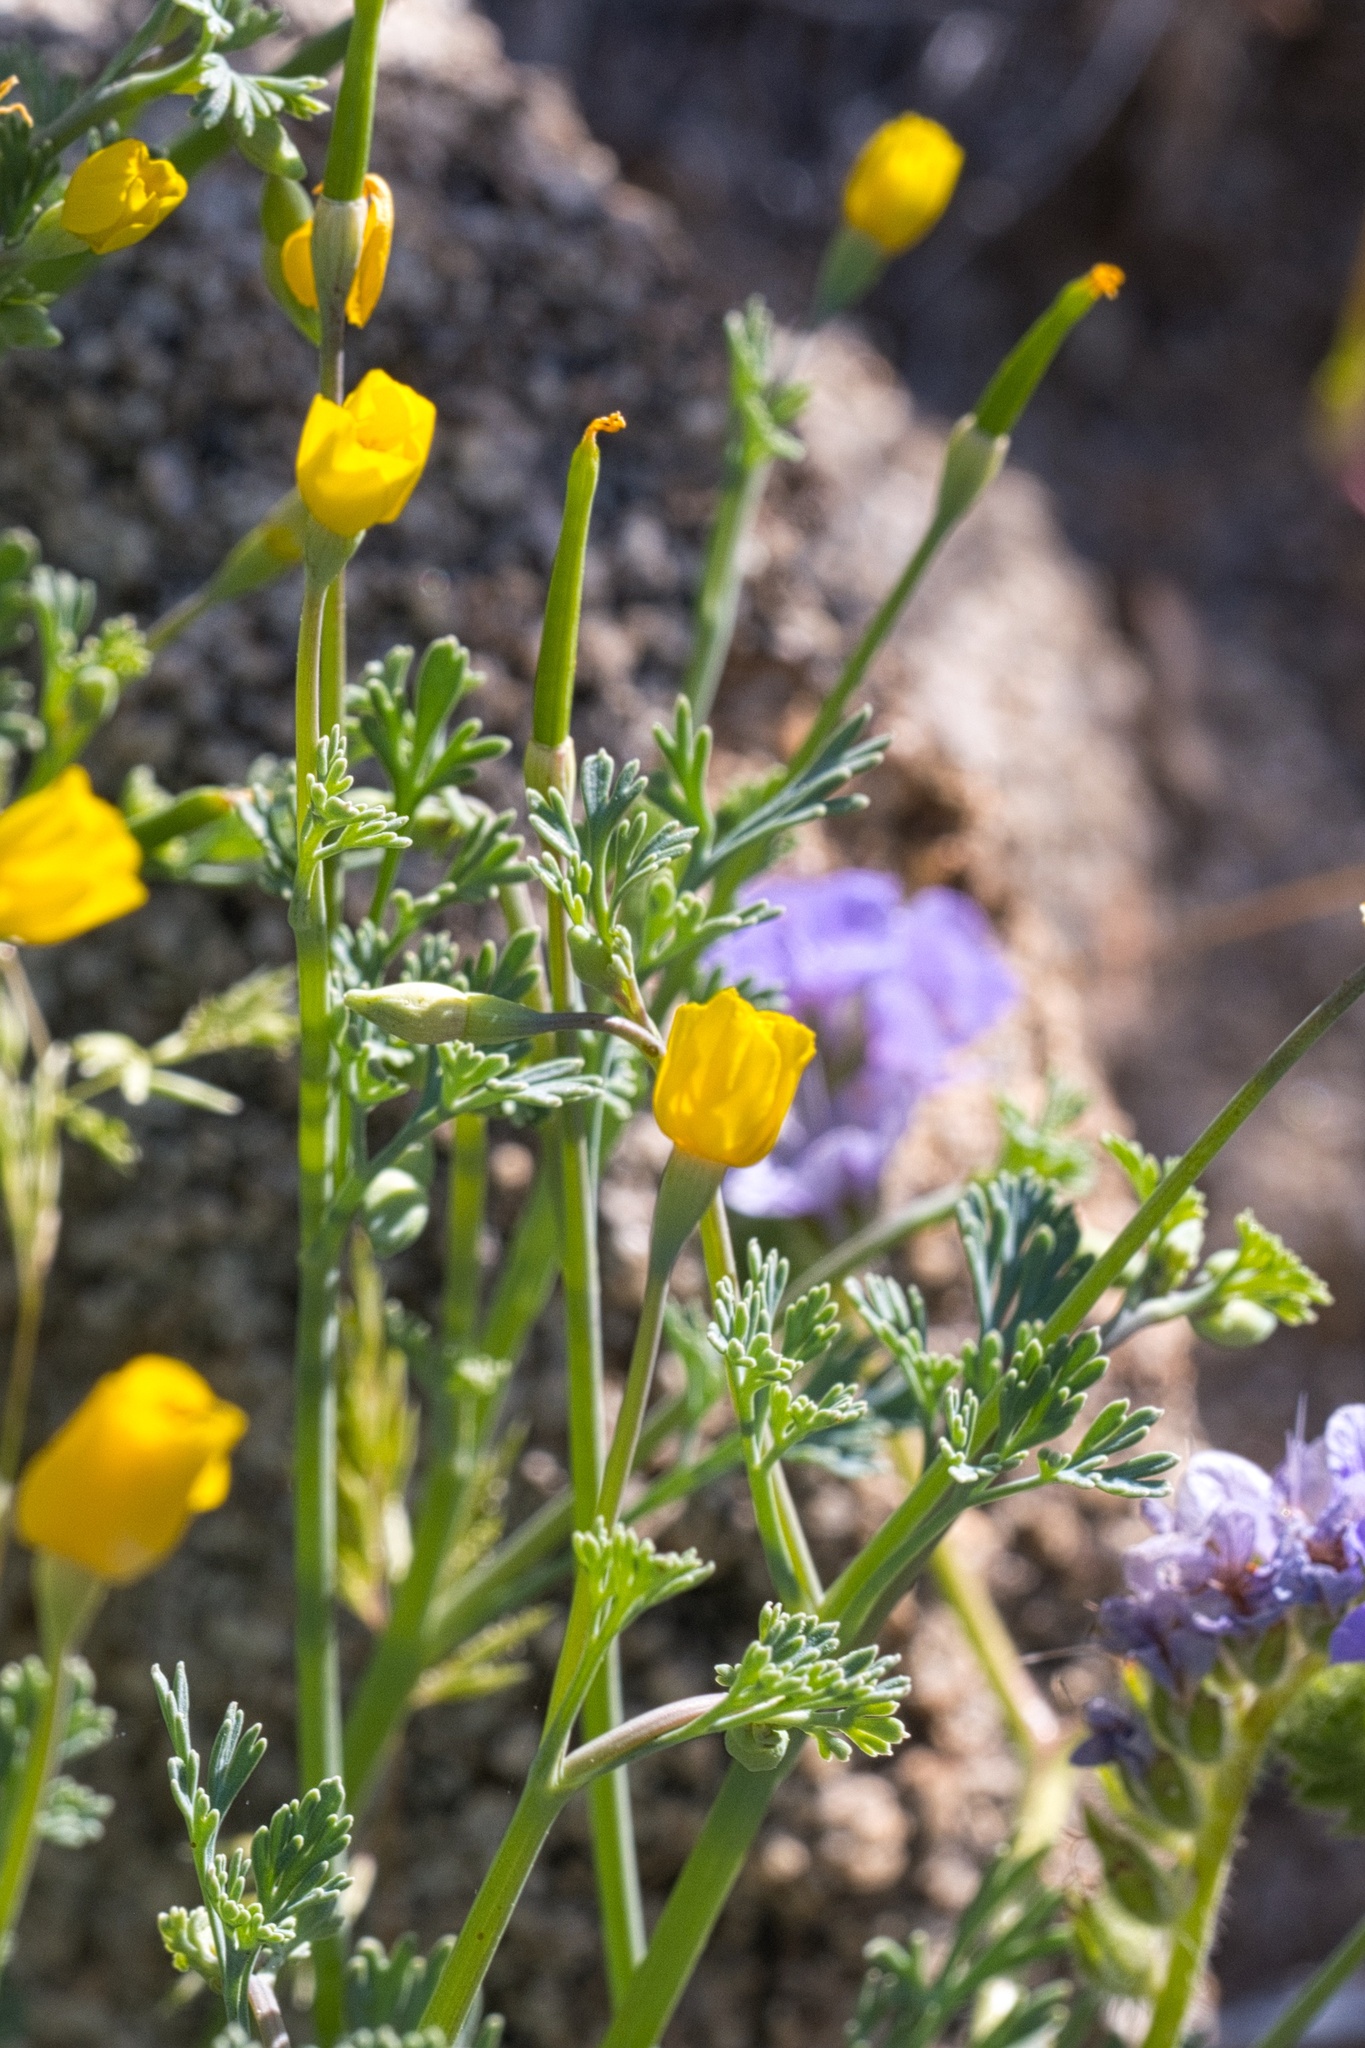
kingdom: Plantae
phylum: Tracheophyta
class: Magnoliopsida
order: Ranunculales
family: Papaveraceae
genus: Eschscholzia
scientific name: Eschscholzia minutiflora
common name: Small-flower california-poppy
